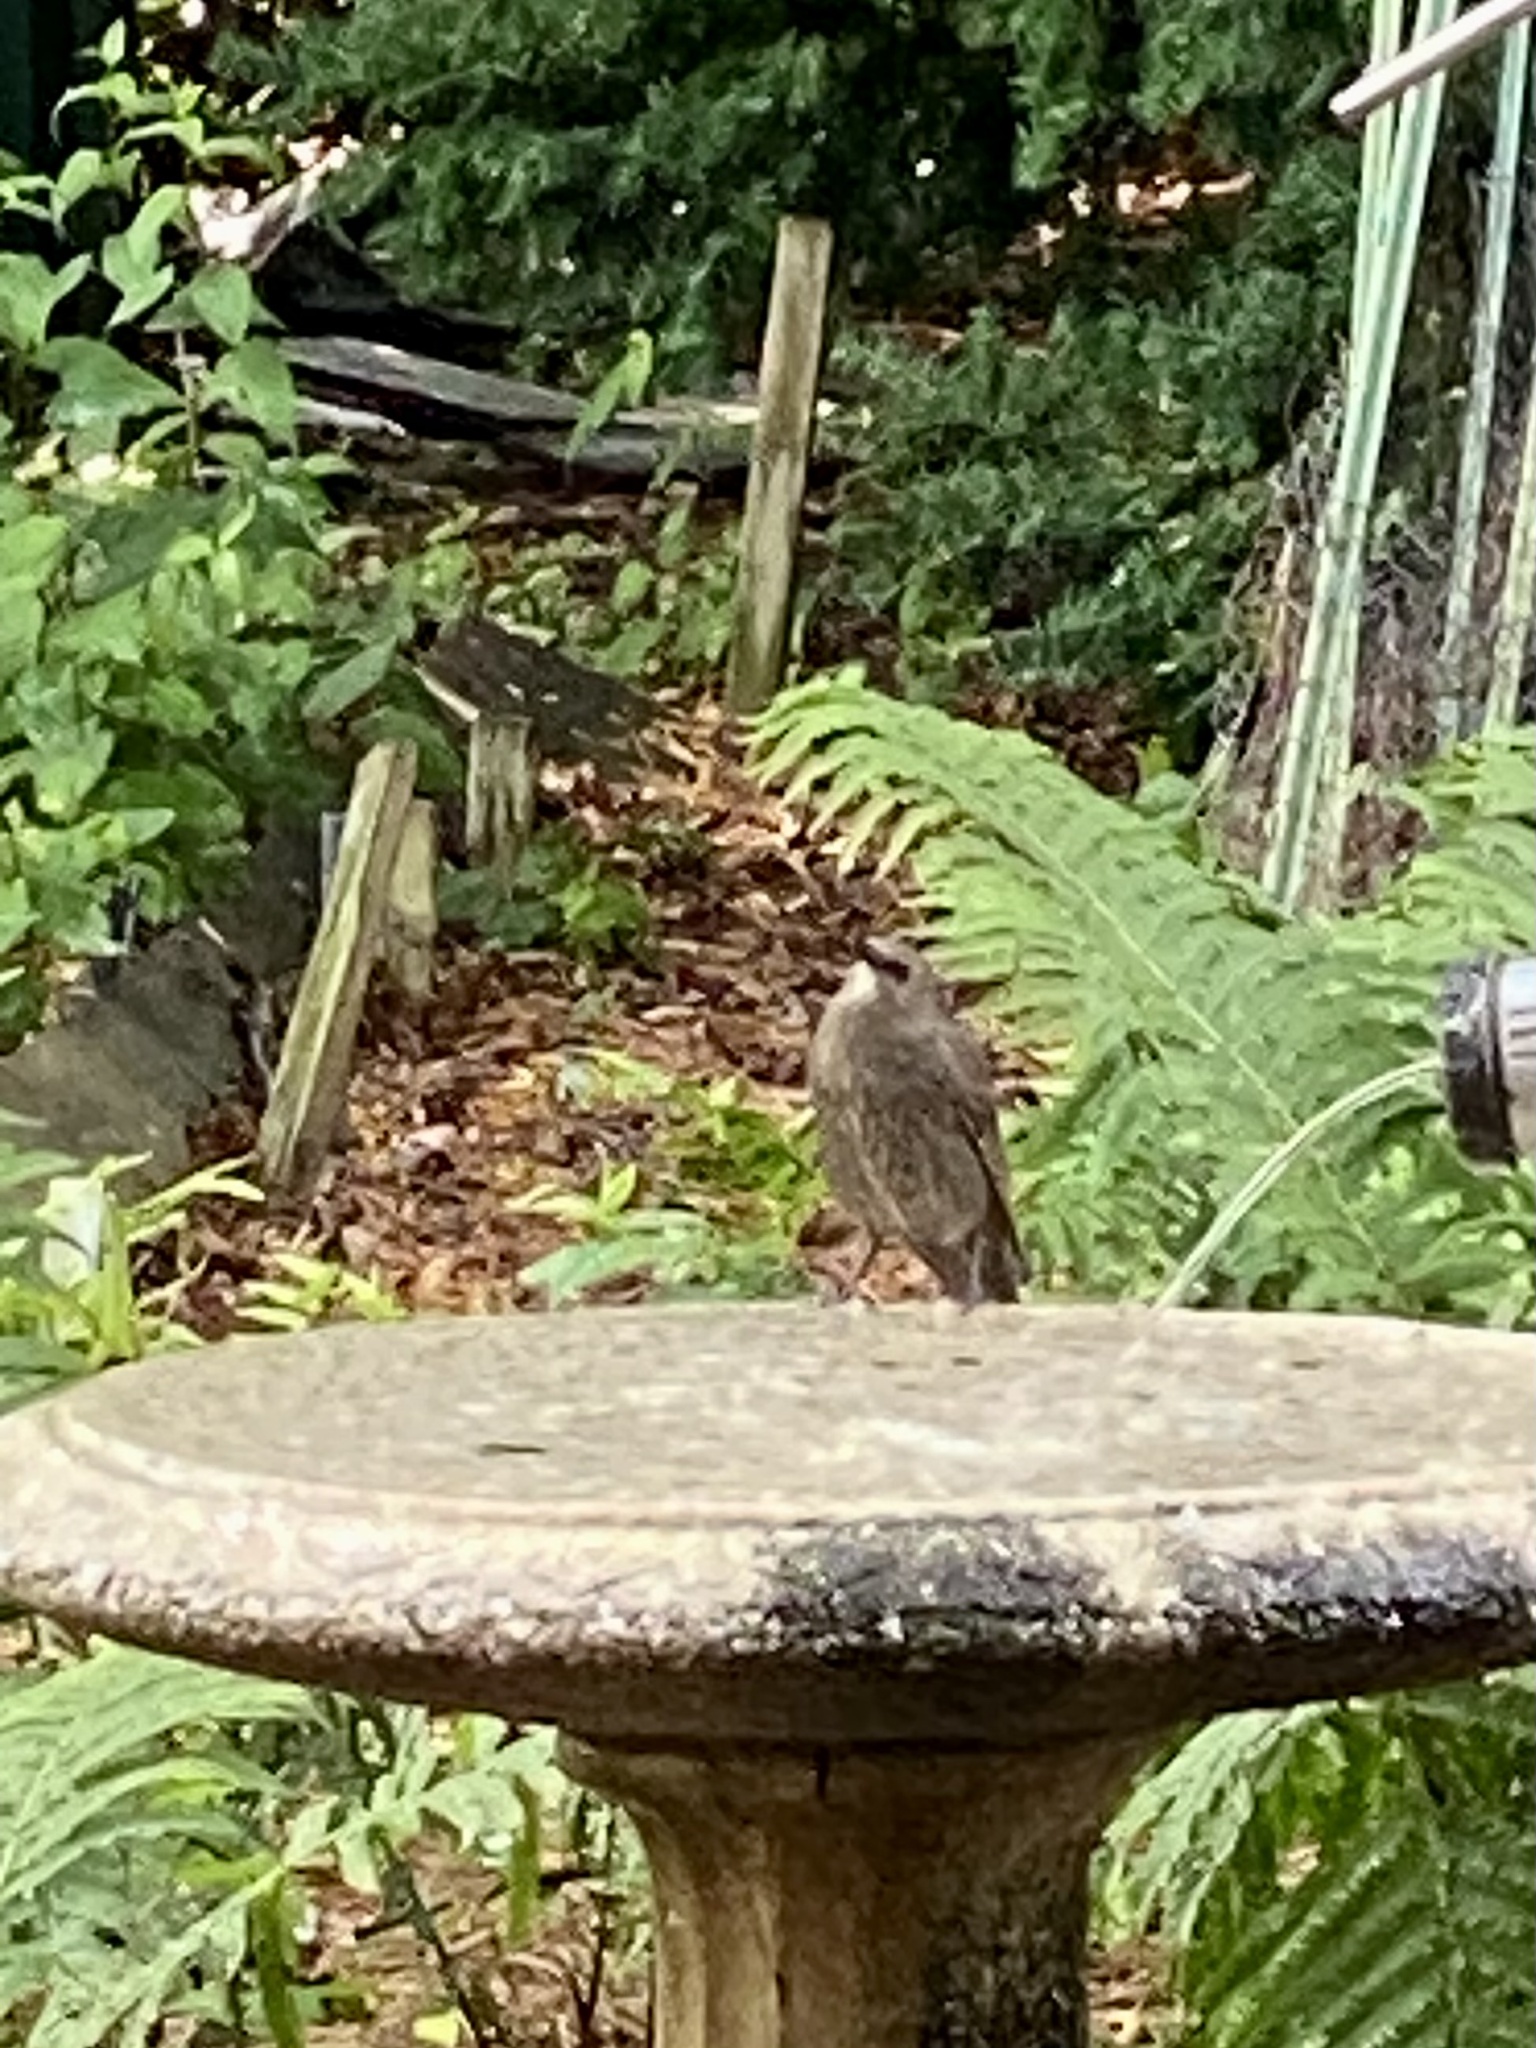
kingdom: Animalia
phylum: Chordata
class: Aves
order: Passeriformes
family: Sturnidae
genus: Sturnus
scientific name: Sturnus vulgaris
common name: Common starling
